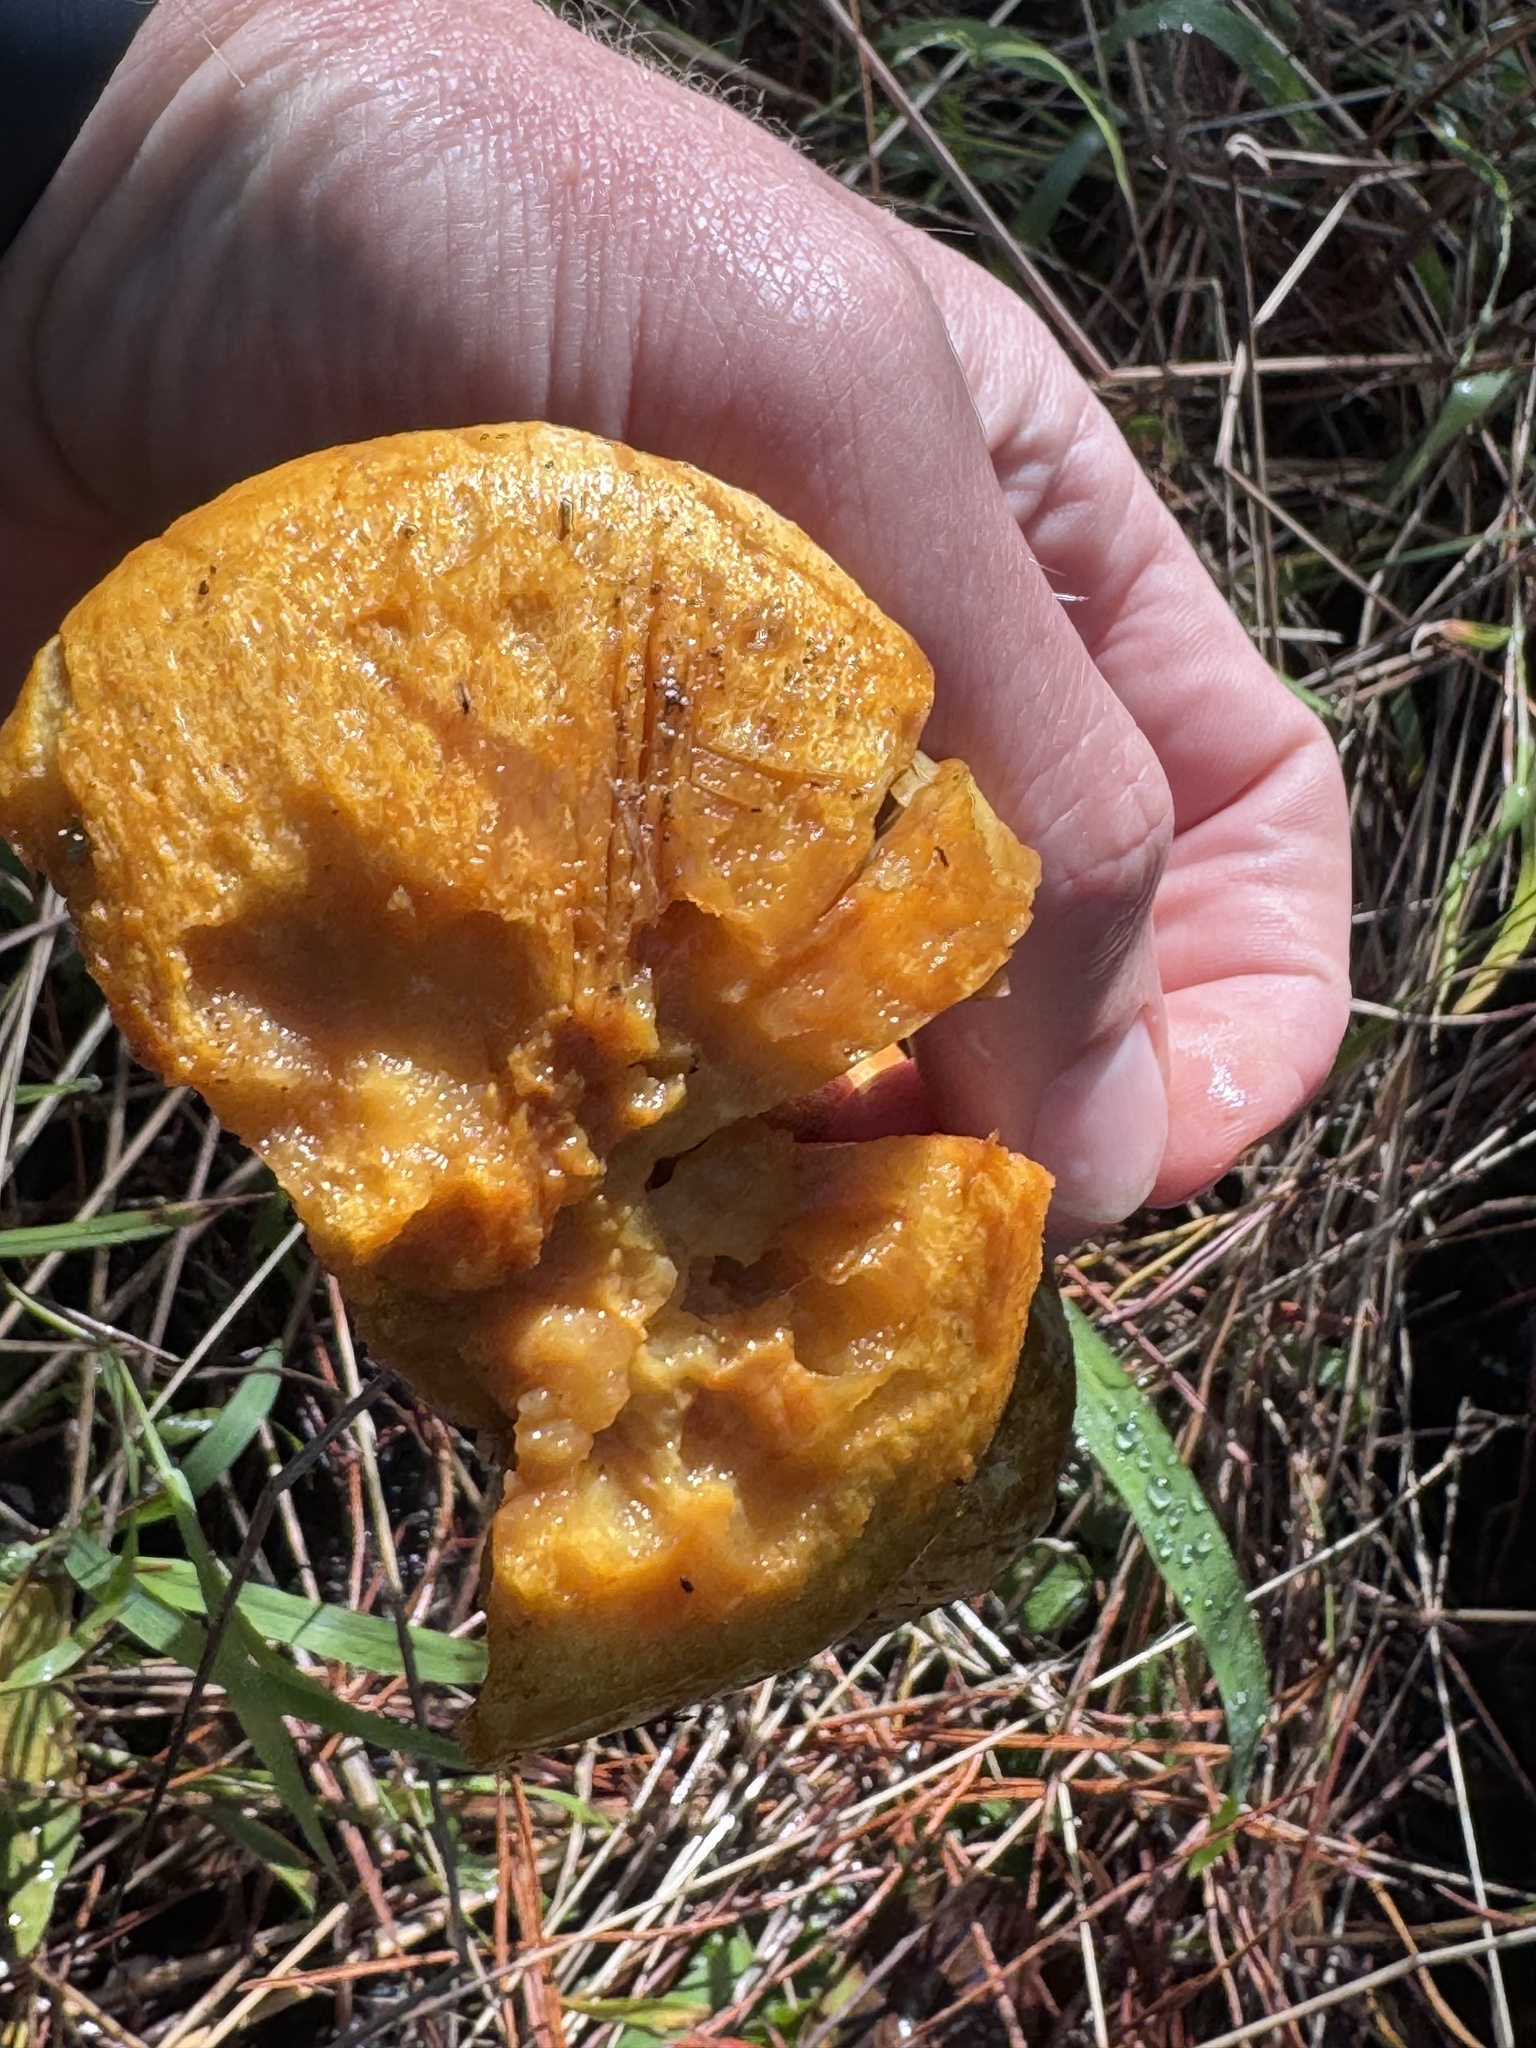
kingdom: Fungi
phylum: Basidiomycota
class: Agaricomycetes
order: Agaricales
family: Hymenogastraceae
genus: Gymnopilus
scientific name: Gymnopilus ventricosus
